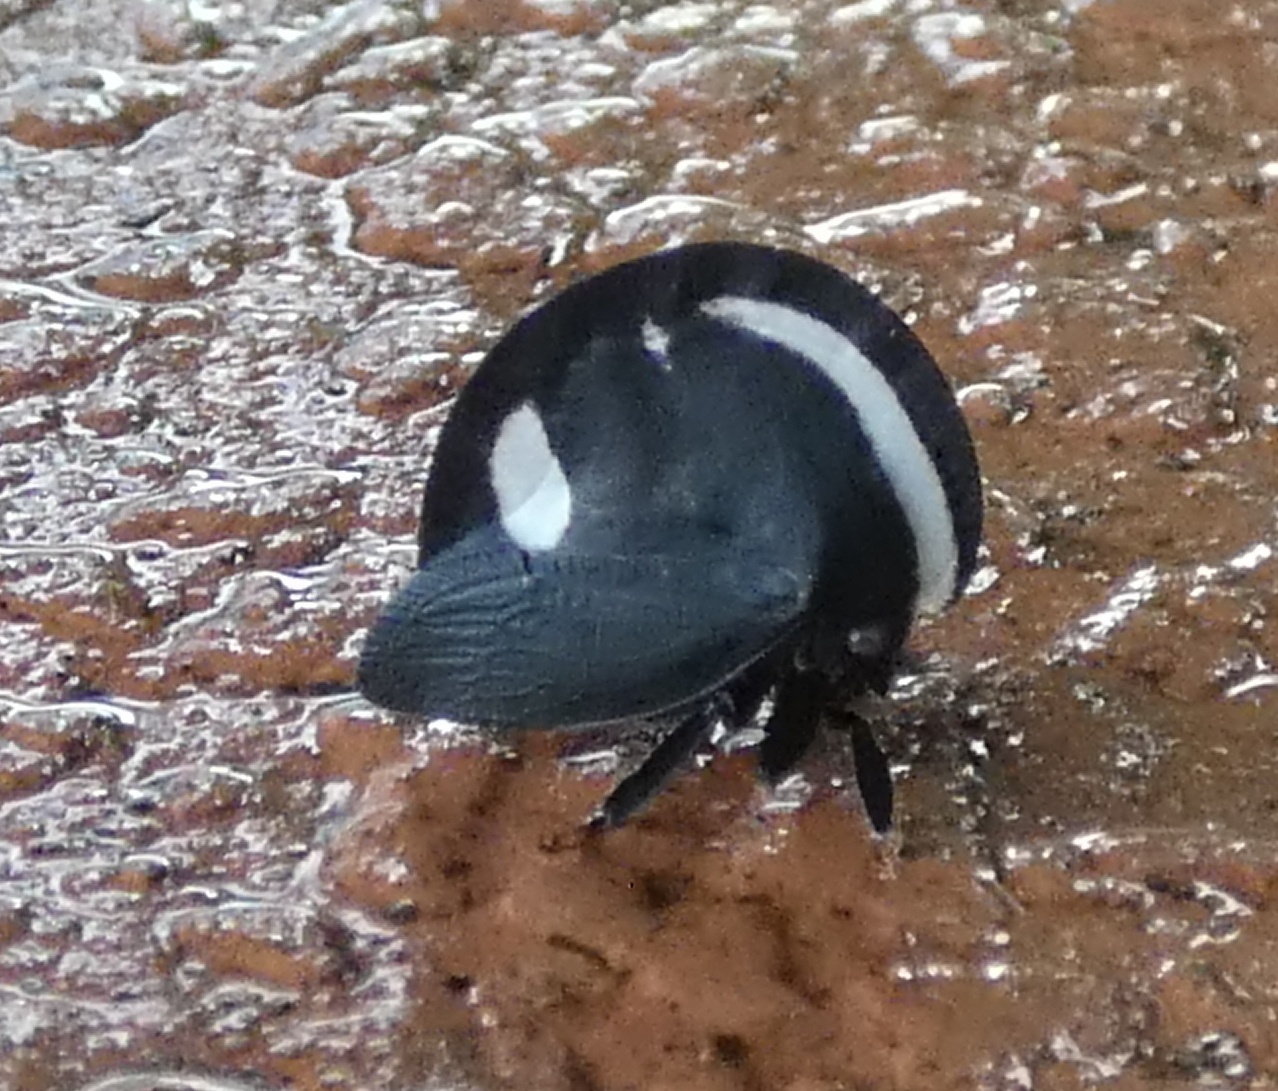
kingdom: Animalia
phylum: Arthropoda
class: Insecta
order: Hemiptera
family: Membracidae
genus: Membracis
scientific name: Membracis
